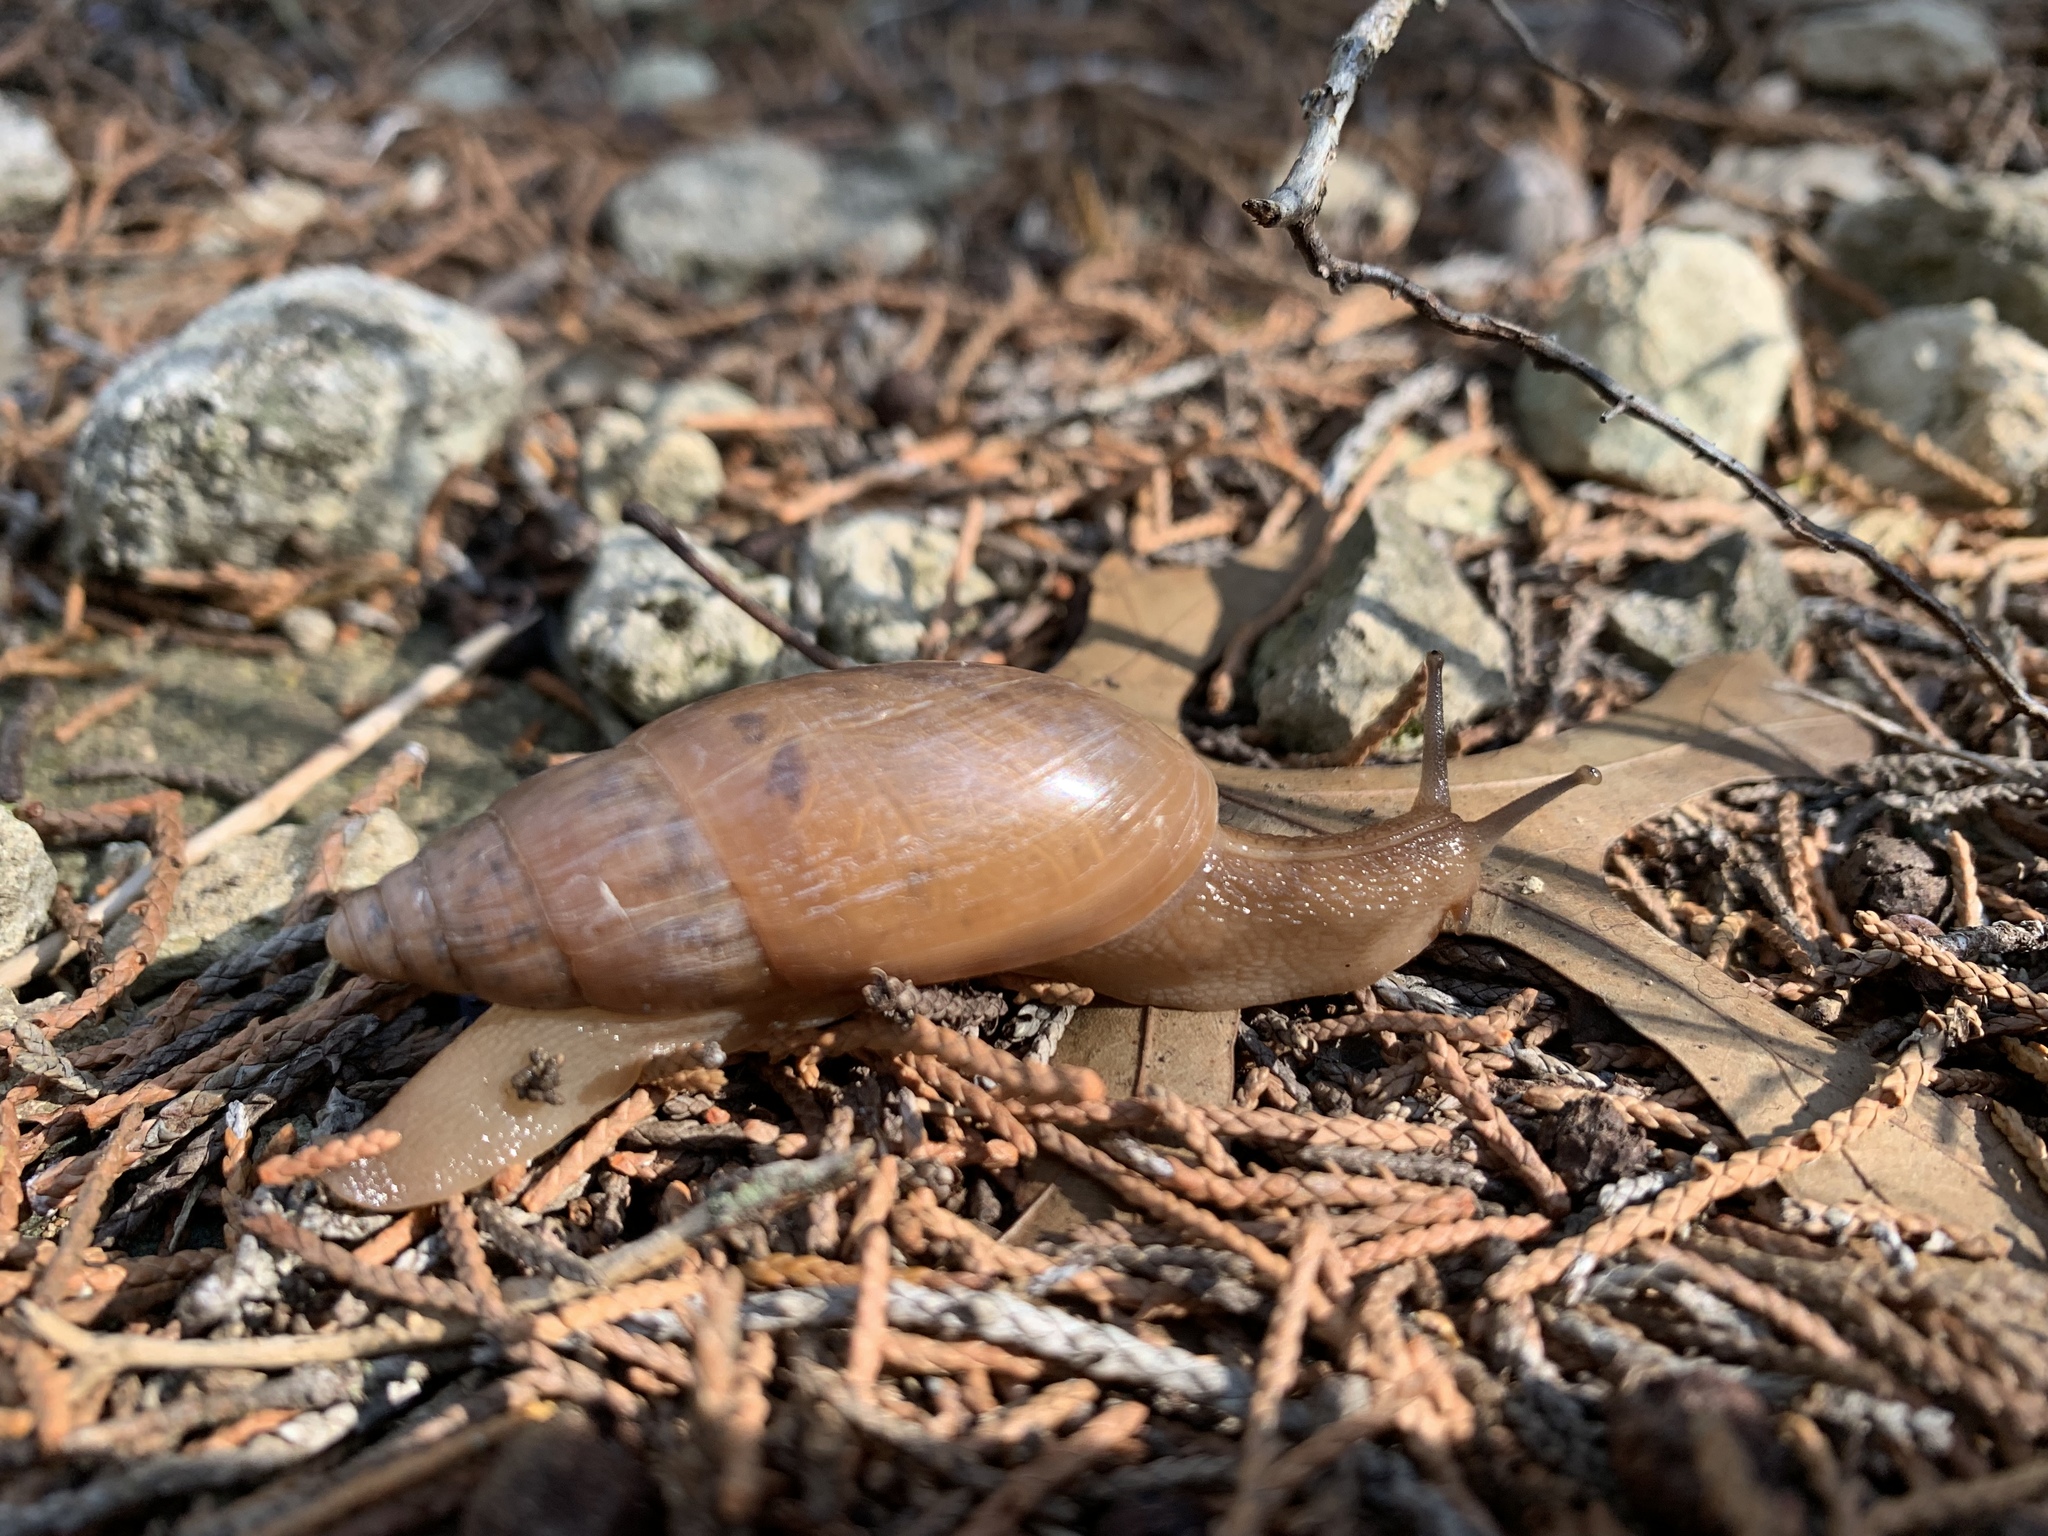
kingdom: Animalia
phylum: Mollusca
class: Gastropoda
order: Stylommatophora
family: Spiraxidae
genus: Euglandina
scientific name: Euglandina singleyana
